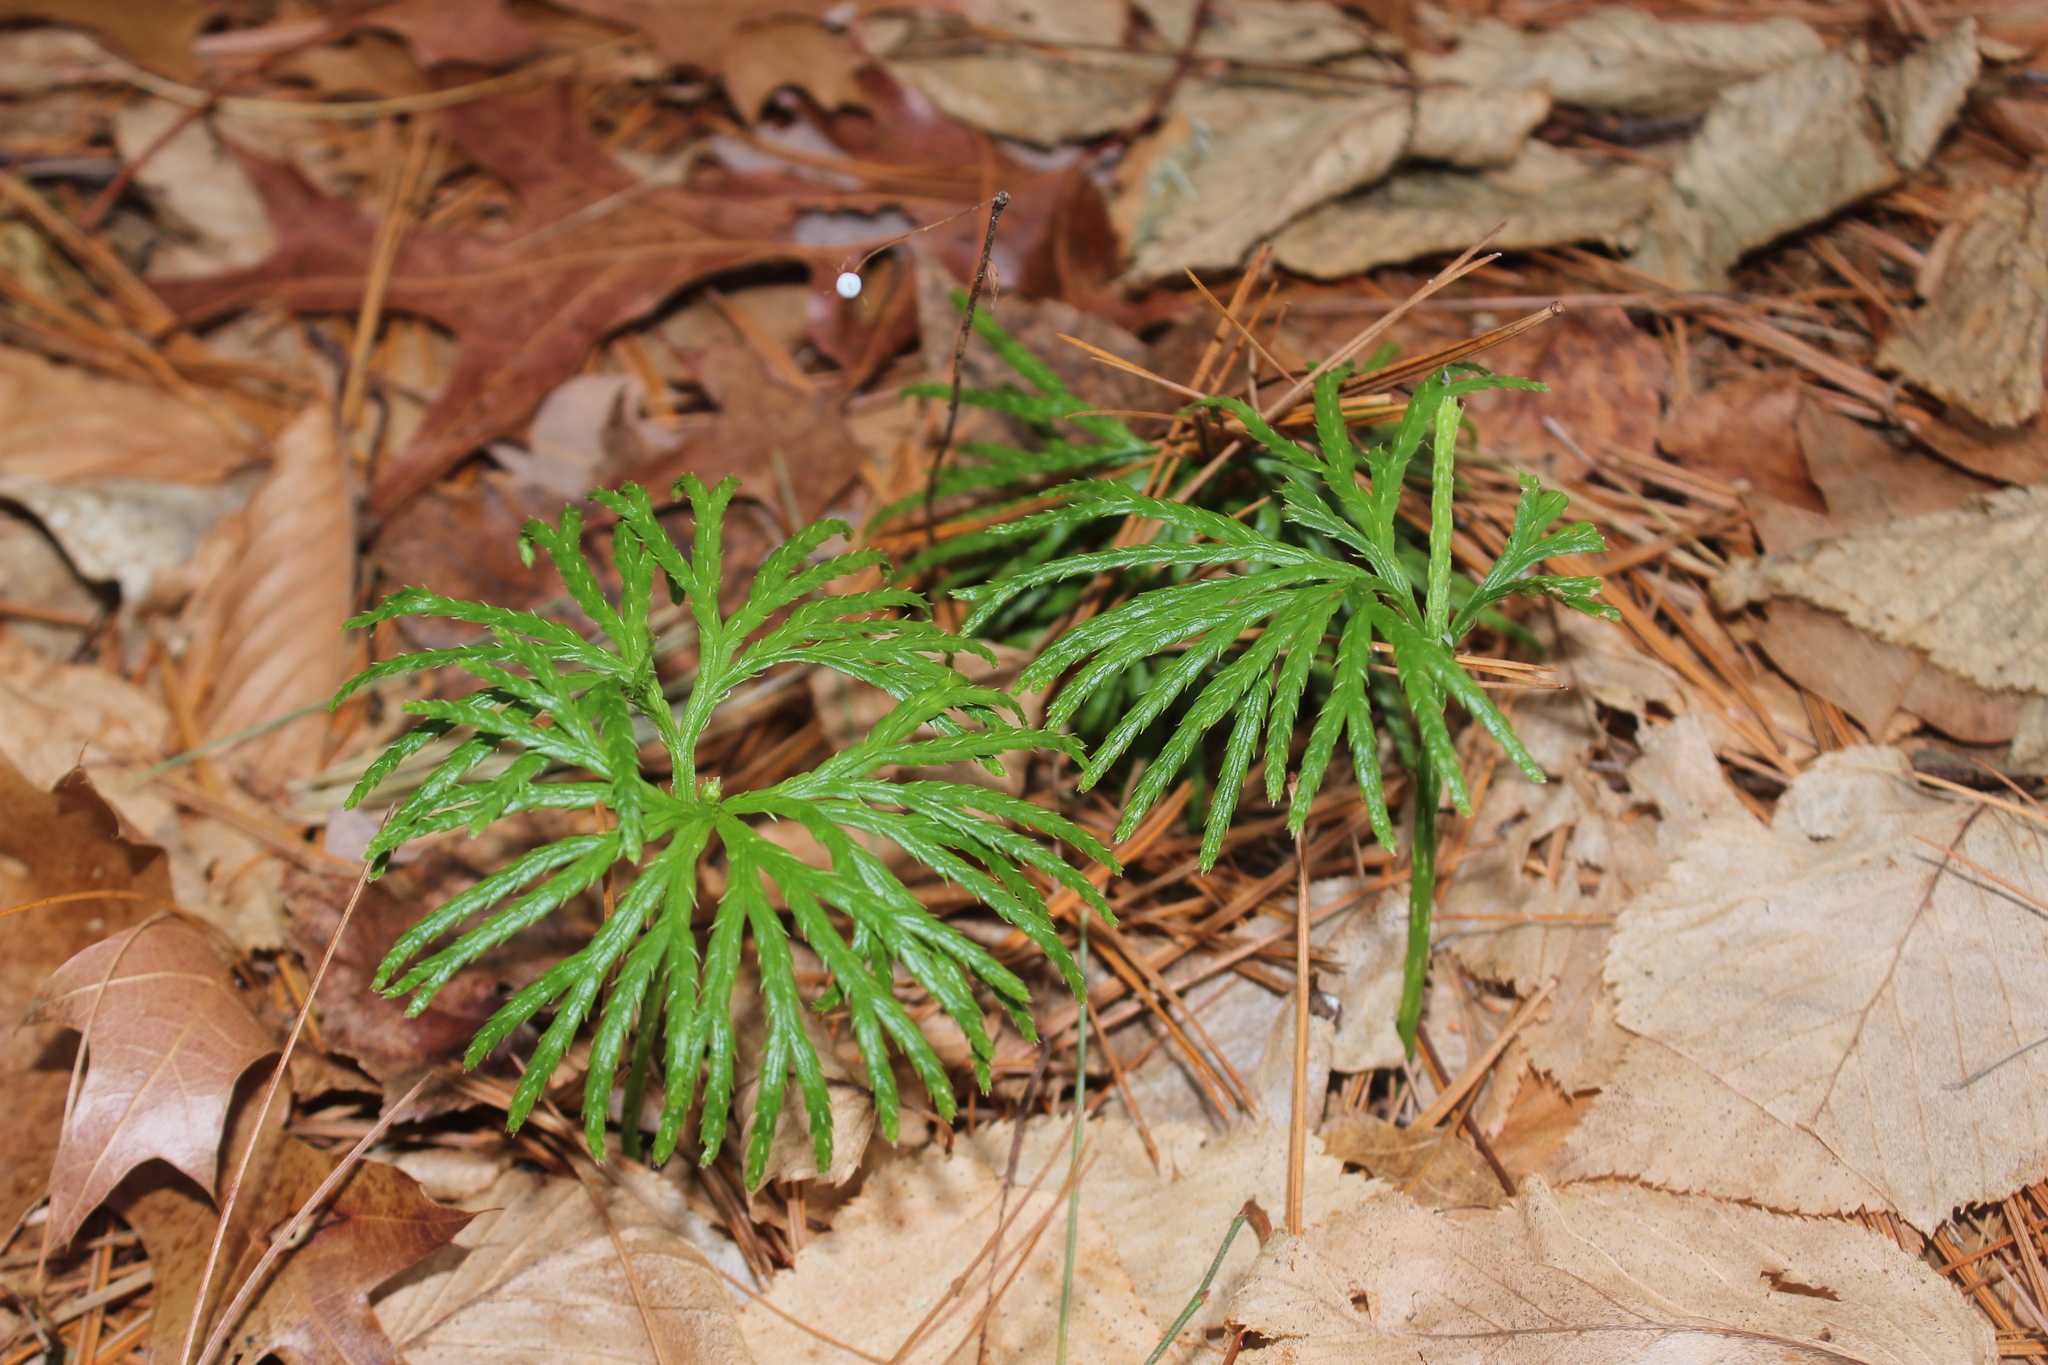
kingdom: Plantae
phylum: Tracheophyta
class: Lycopodiopsida
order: Lycopodiales
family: Lycopodiaceae
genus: Diphasiastrum
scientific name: Diphasiastrum digitatum
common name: Southern running-pine
